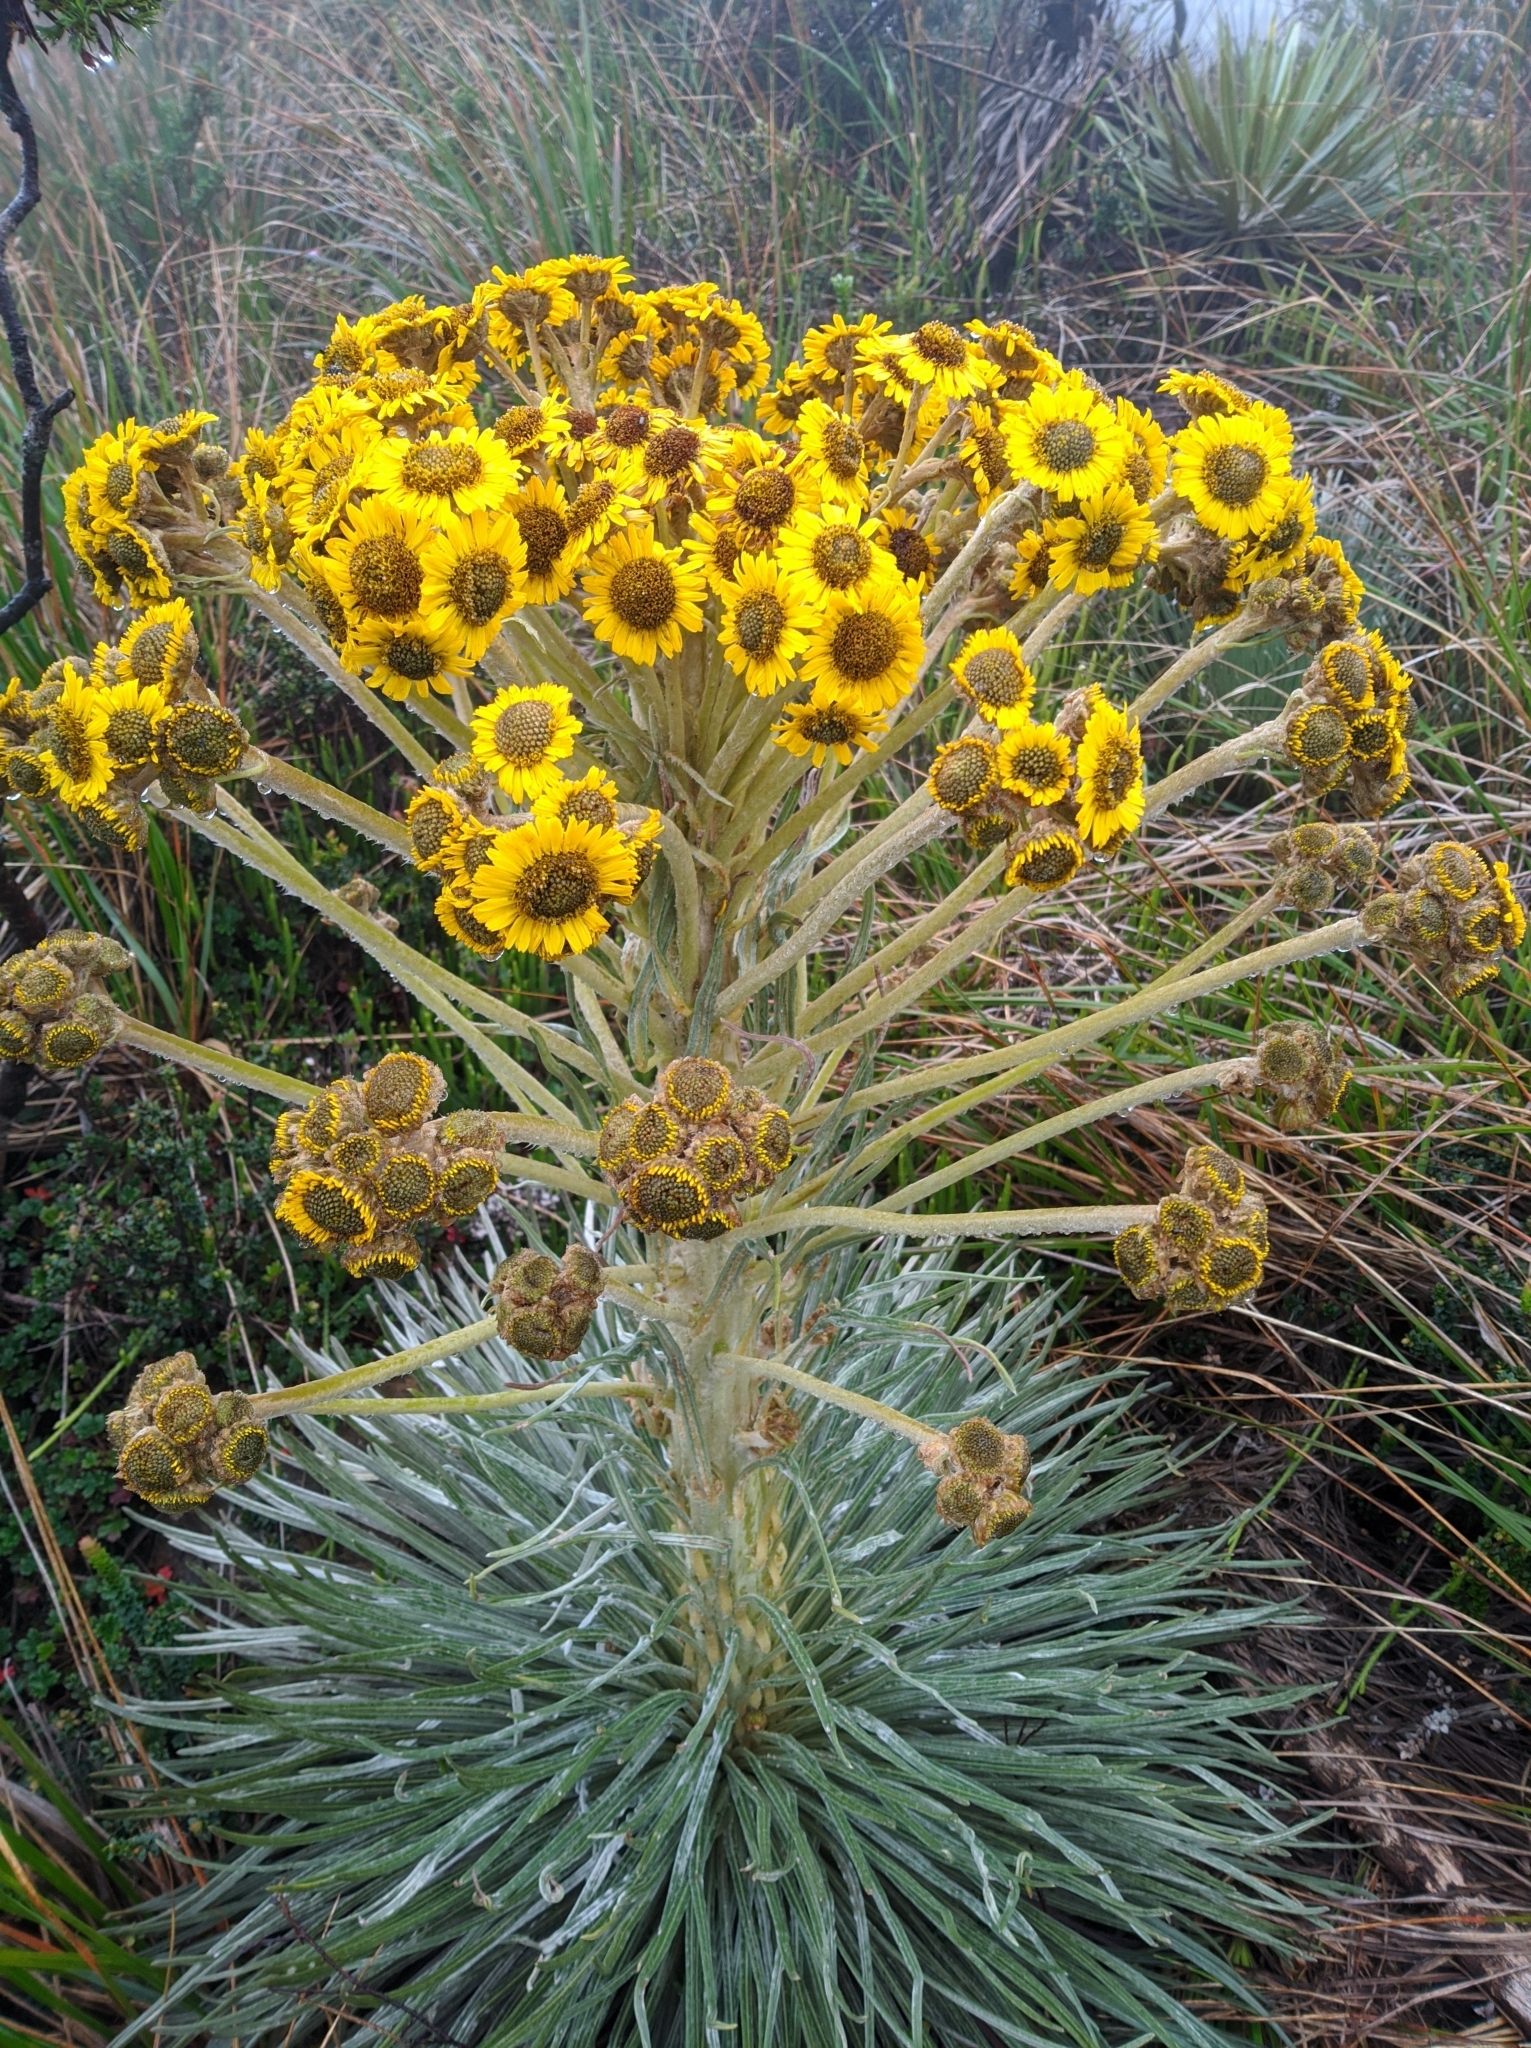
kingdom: Plantae
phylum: Tracheophyta
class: Magnoliopsida
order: Asterales
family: Asteraceae
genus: Espeletia
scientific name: Espeletia jabonensis
